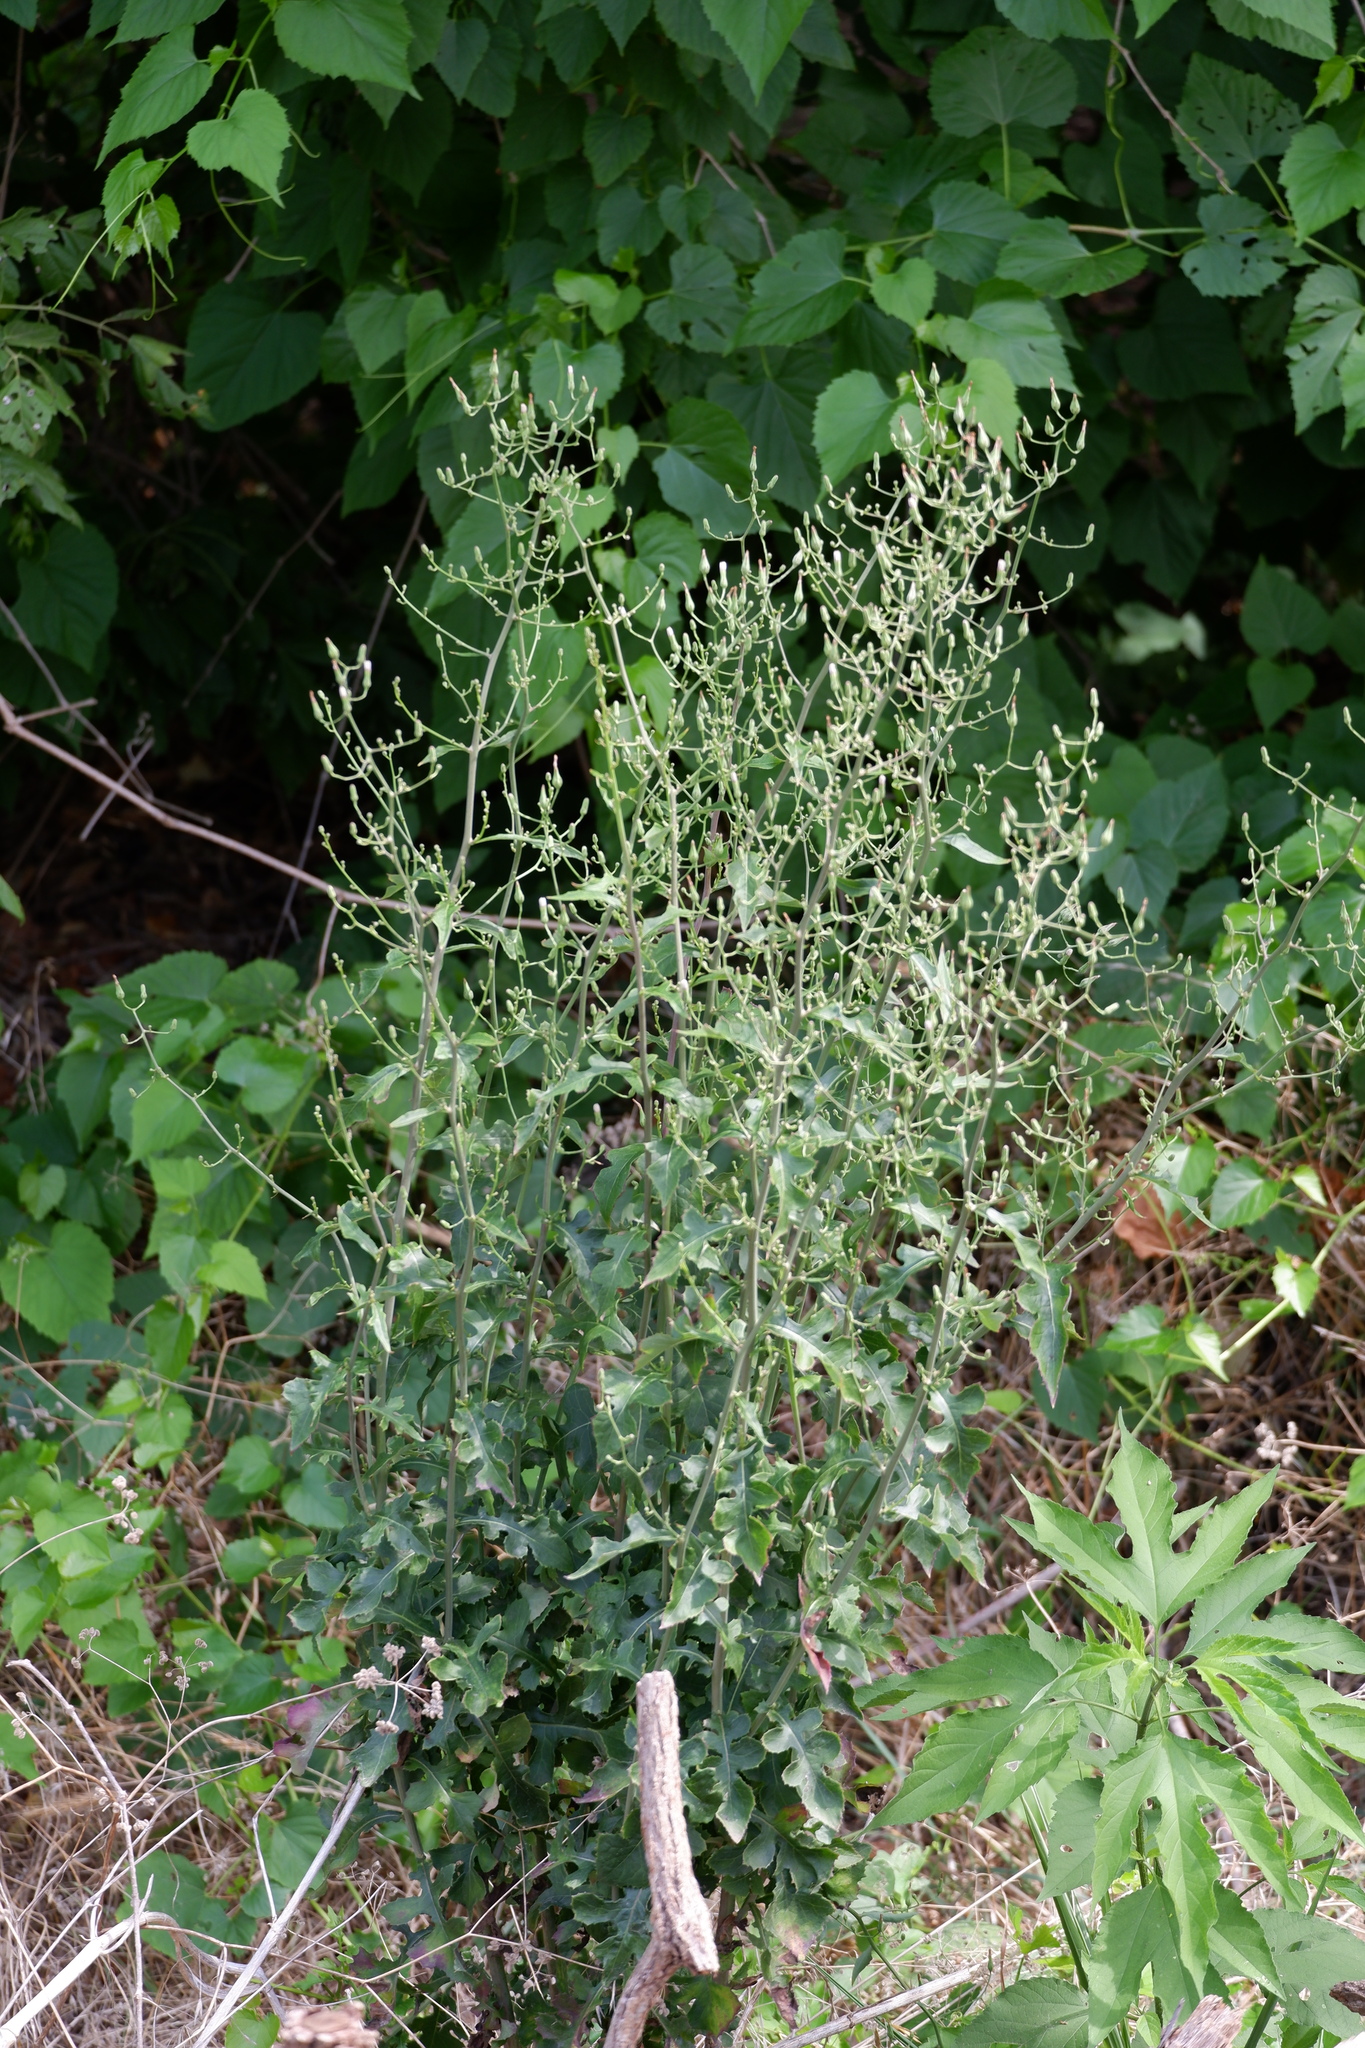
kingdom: Plantae
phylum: Tracheophyta
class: Magnoliopsida
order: Asterales
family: Asteraceae
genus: Lactuca
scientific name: Lactuca ludoviciana
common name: Louisiana lettuce
